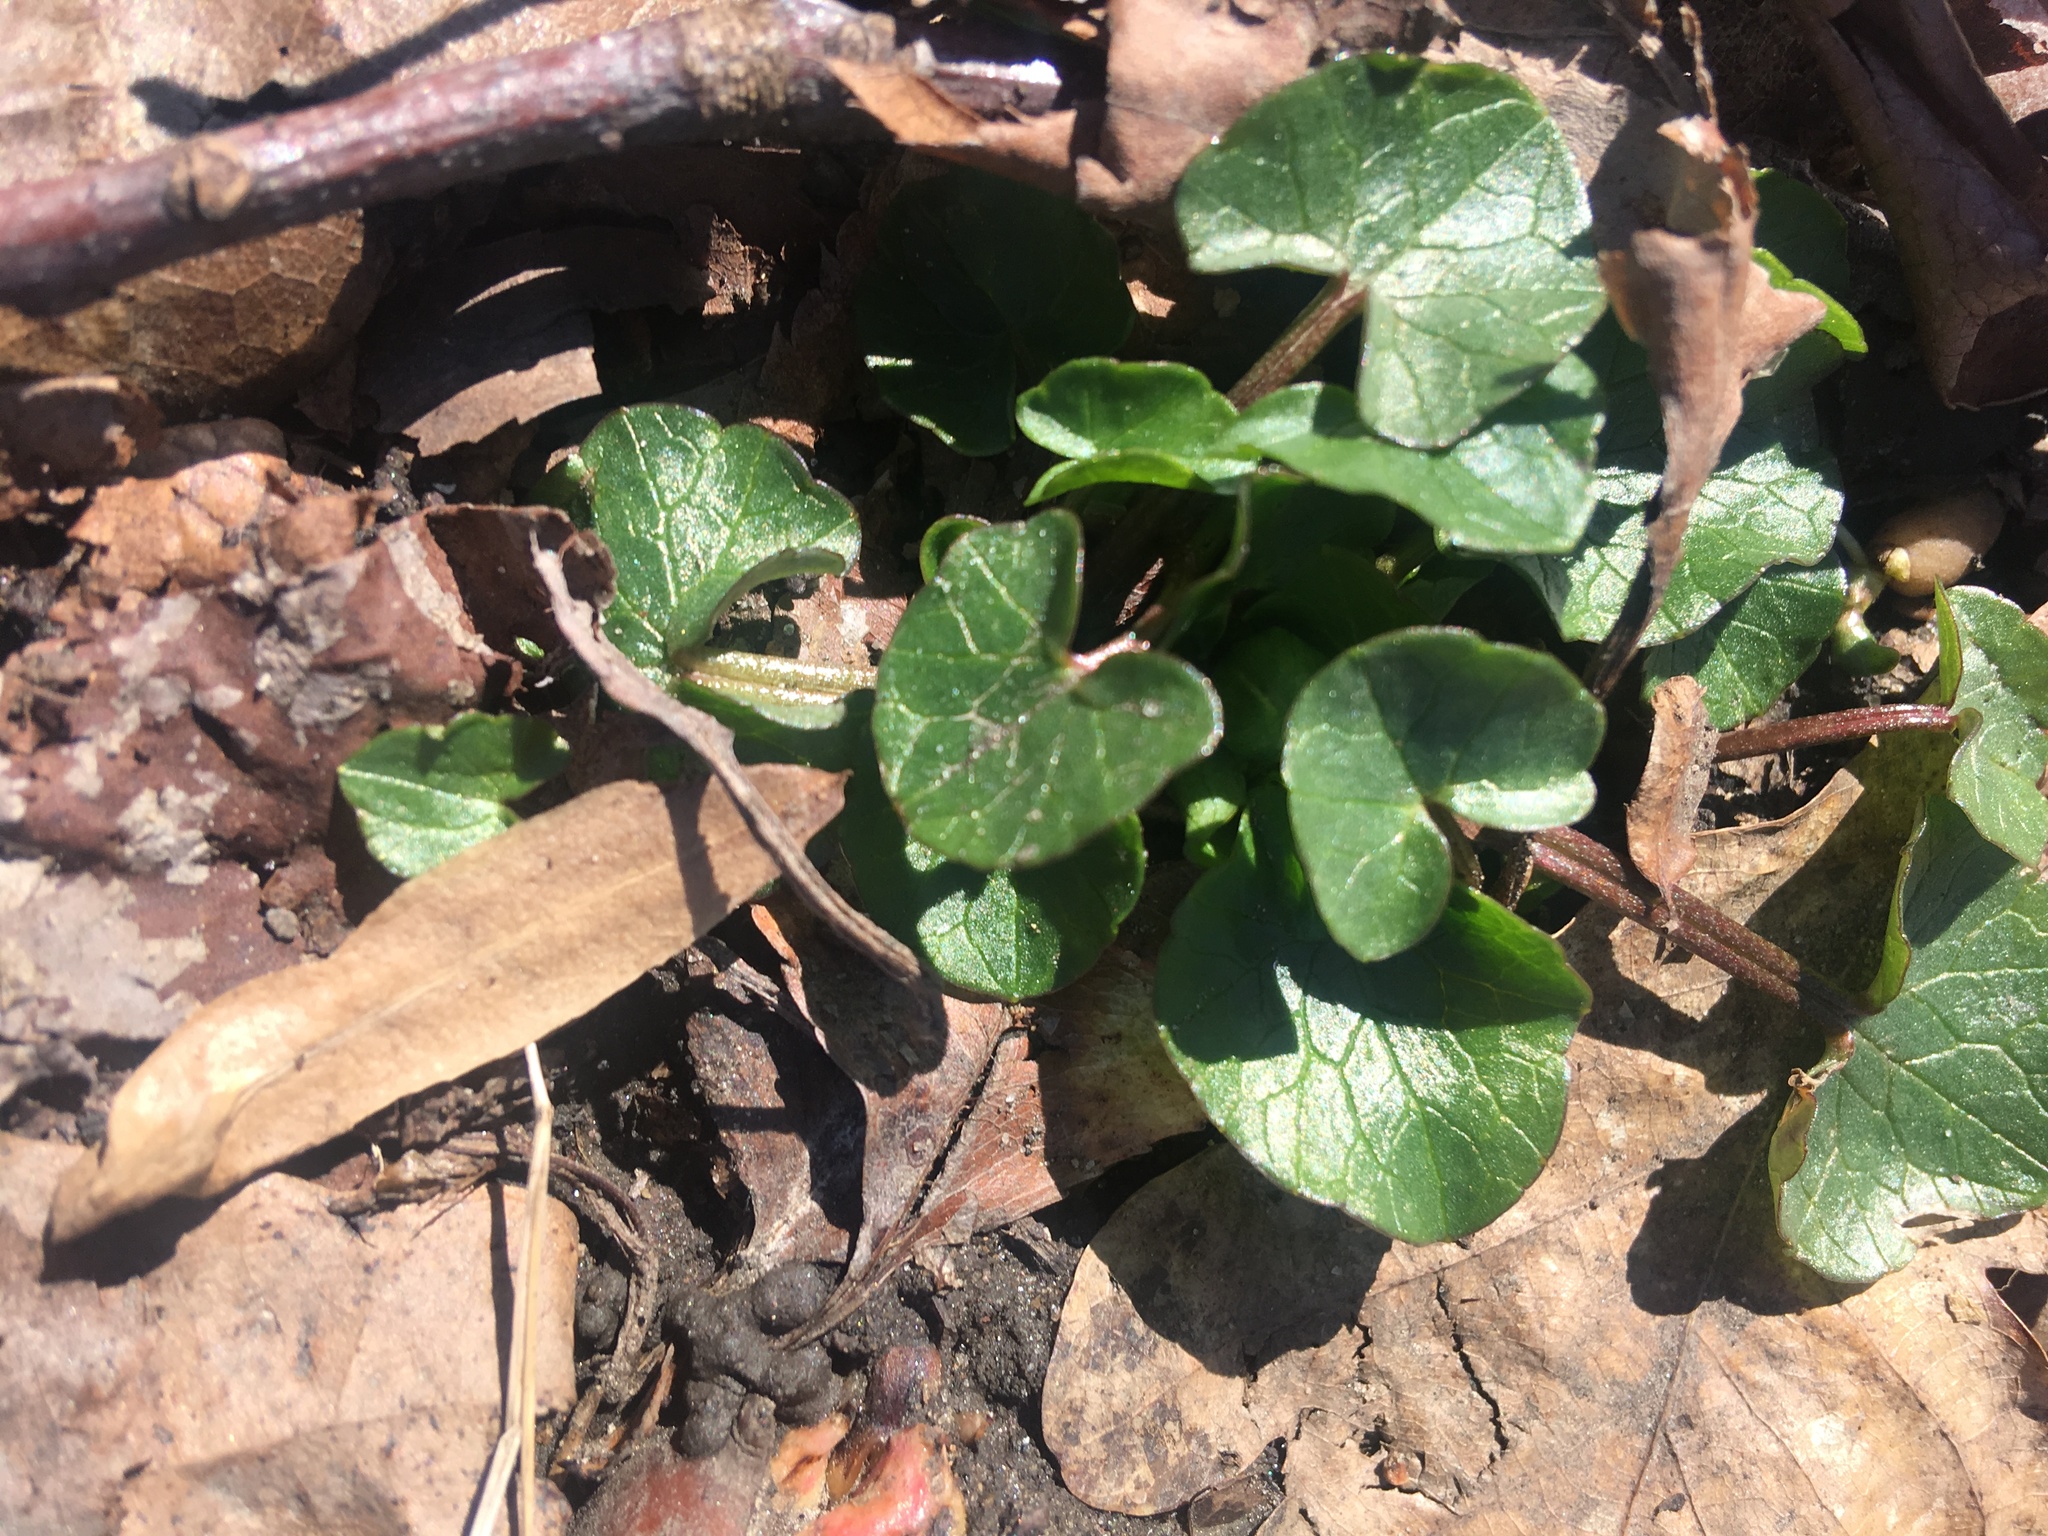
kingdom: Plantae
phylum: Tracheophyta
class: Magnoliopsida
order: Ranunculales
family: Ranunculaceae
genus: Ficaria
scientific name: Ficaria verna
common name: Lesser celandine
